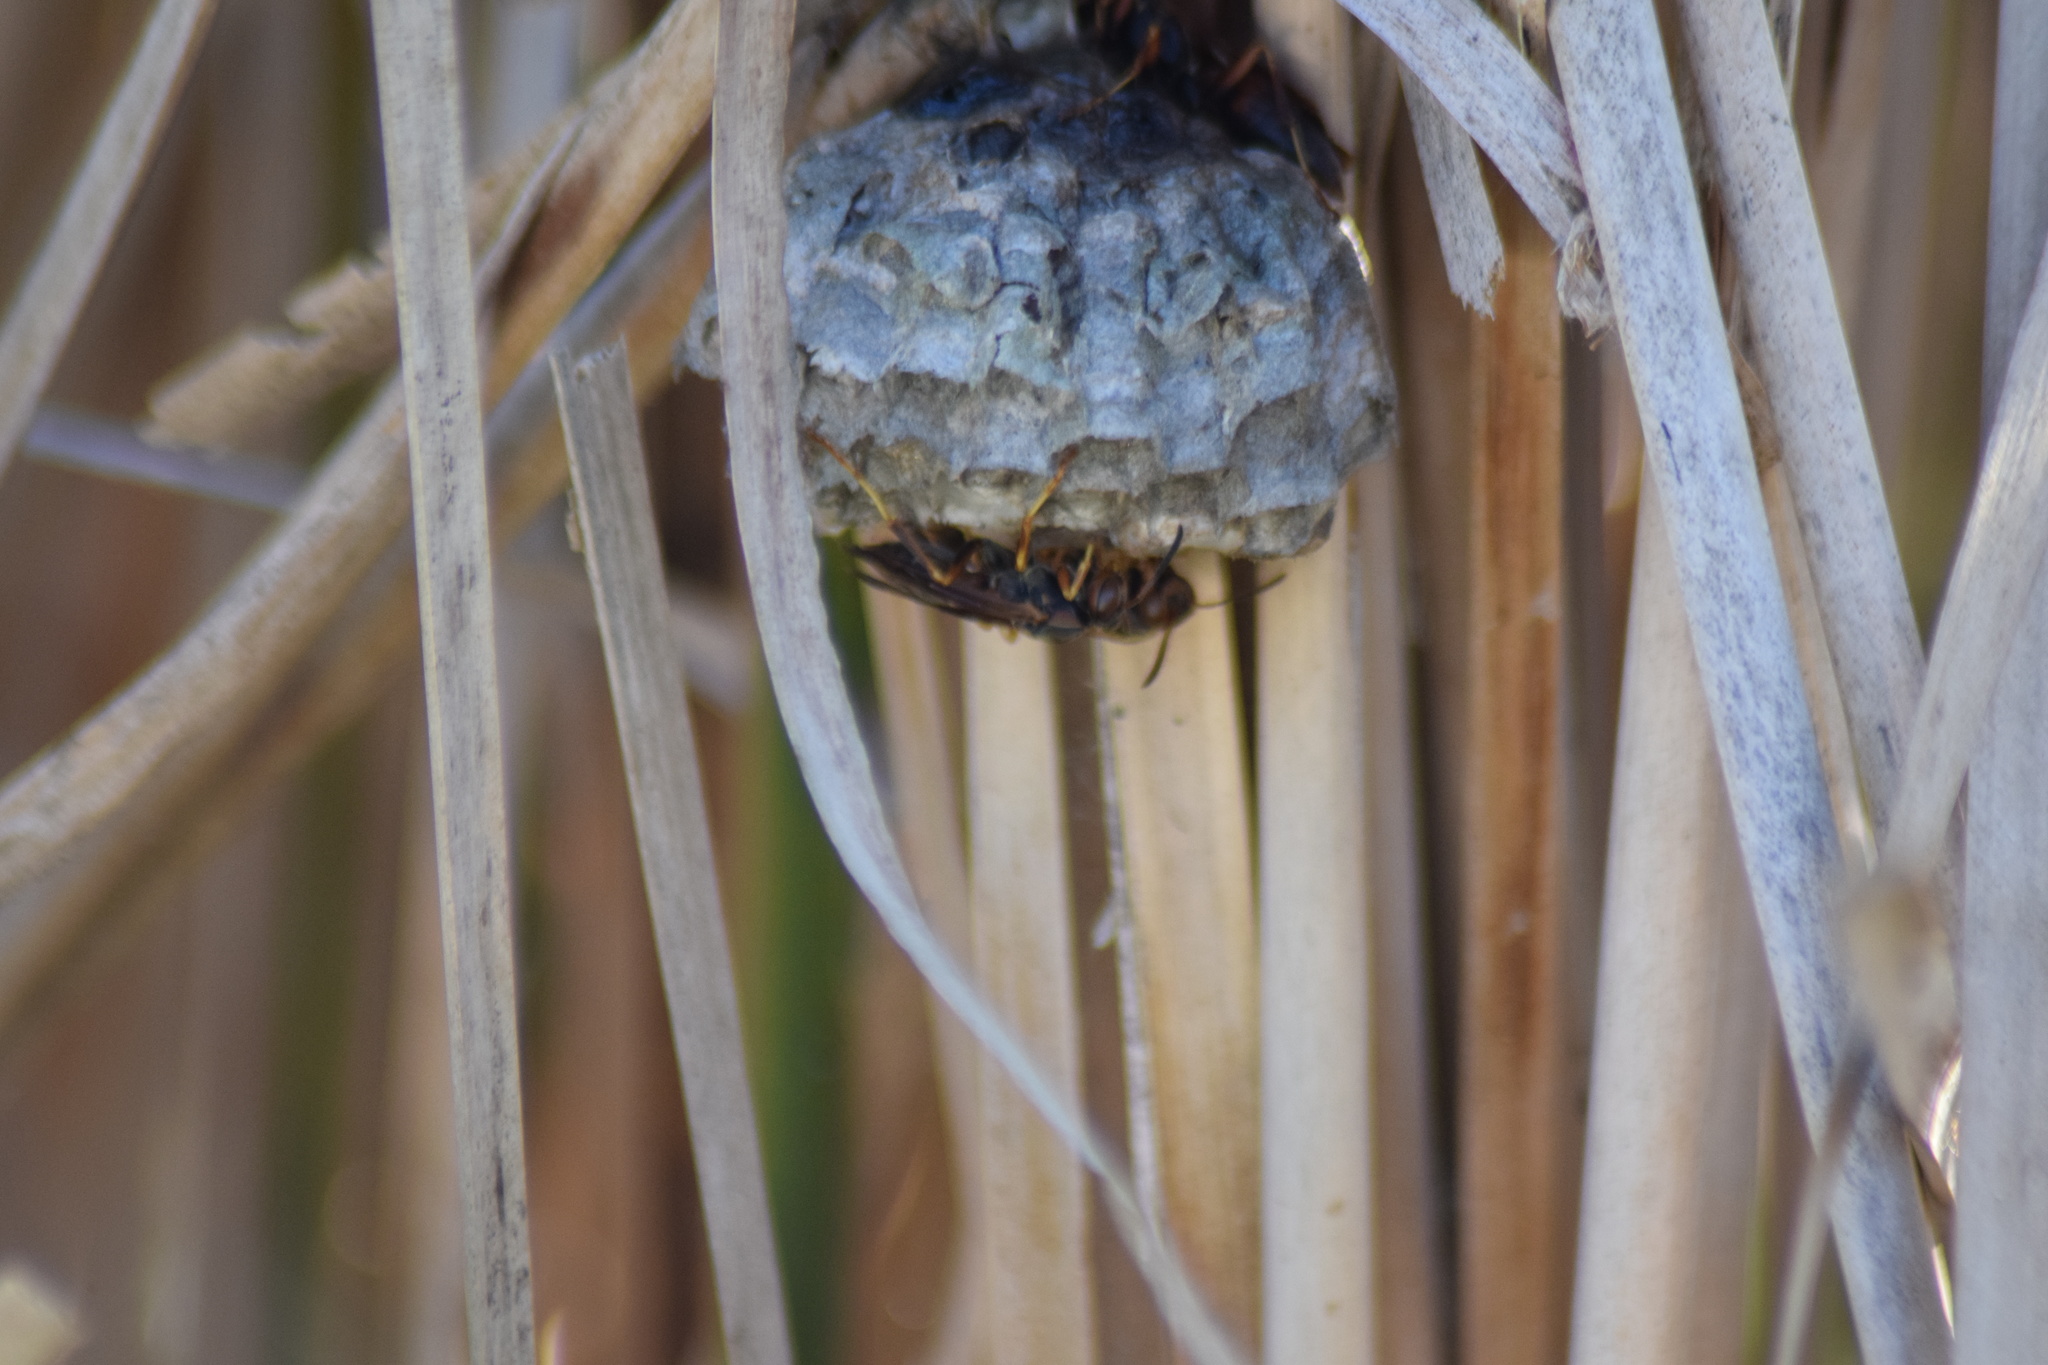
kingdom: Animalia
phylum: Arthropoda
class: Insecta
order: Hymenoptera
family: Eumenidae
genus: Polistes
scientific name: Polistes fuscatus
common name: Dark paper wasp
